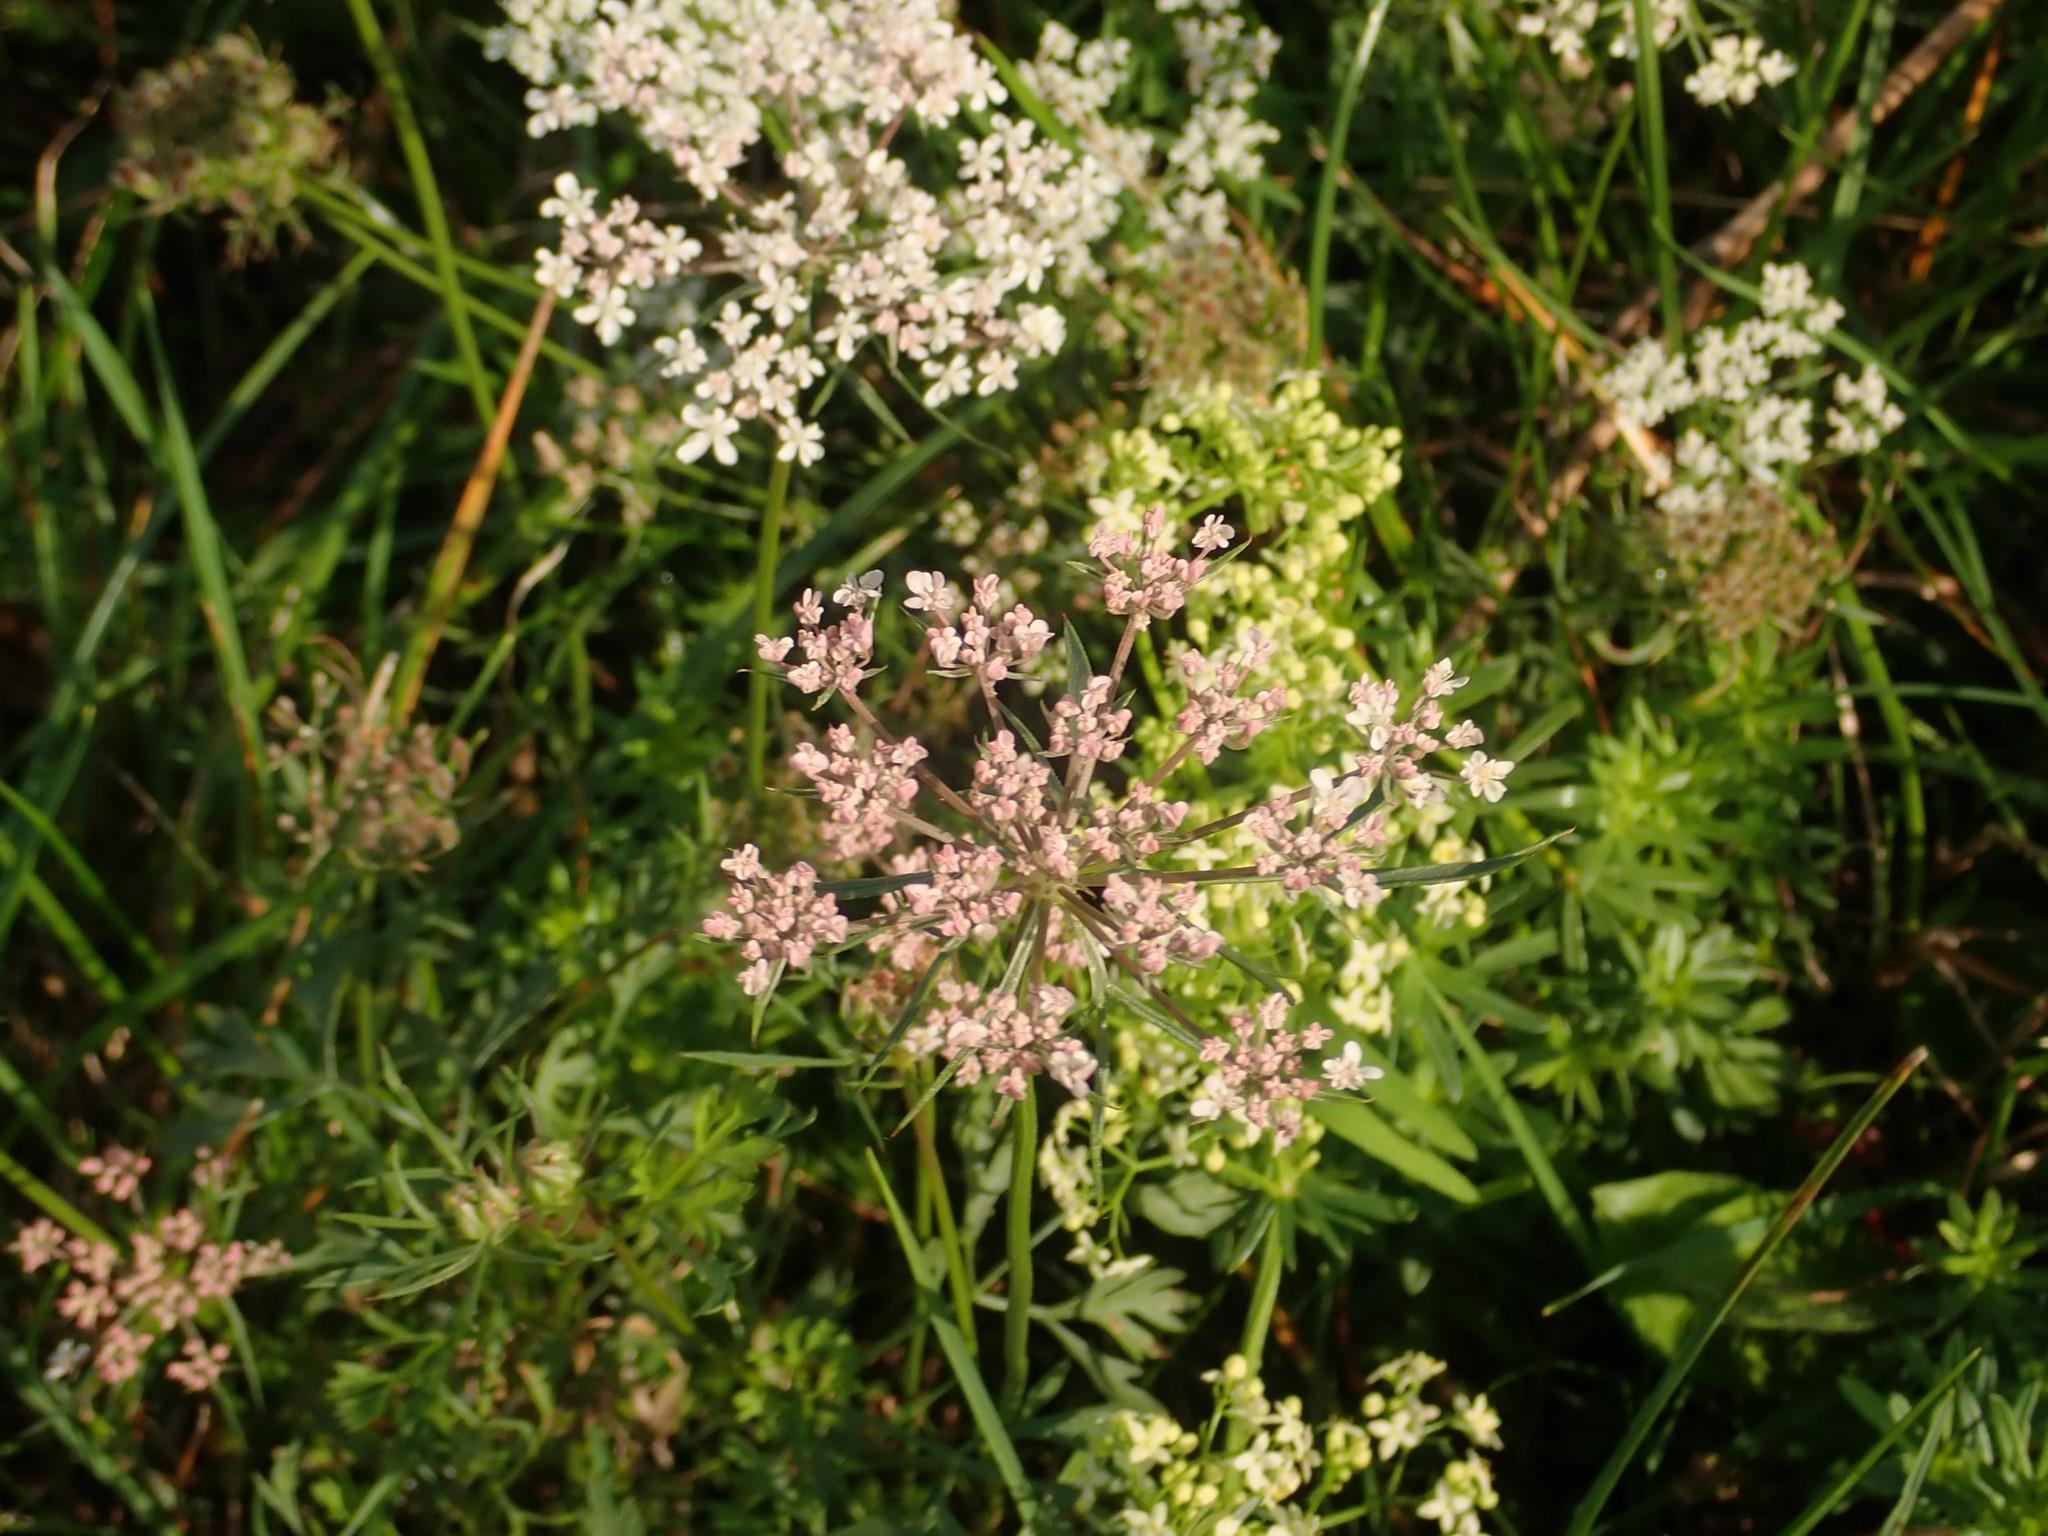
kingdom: Plantae
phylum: Tracheophyta
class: Magnoliopsida
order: Apiales
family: Apiaceae
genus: Daucus
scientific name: Daucus carota
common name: Wild carrot
